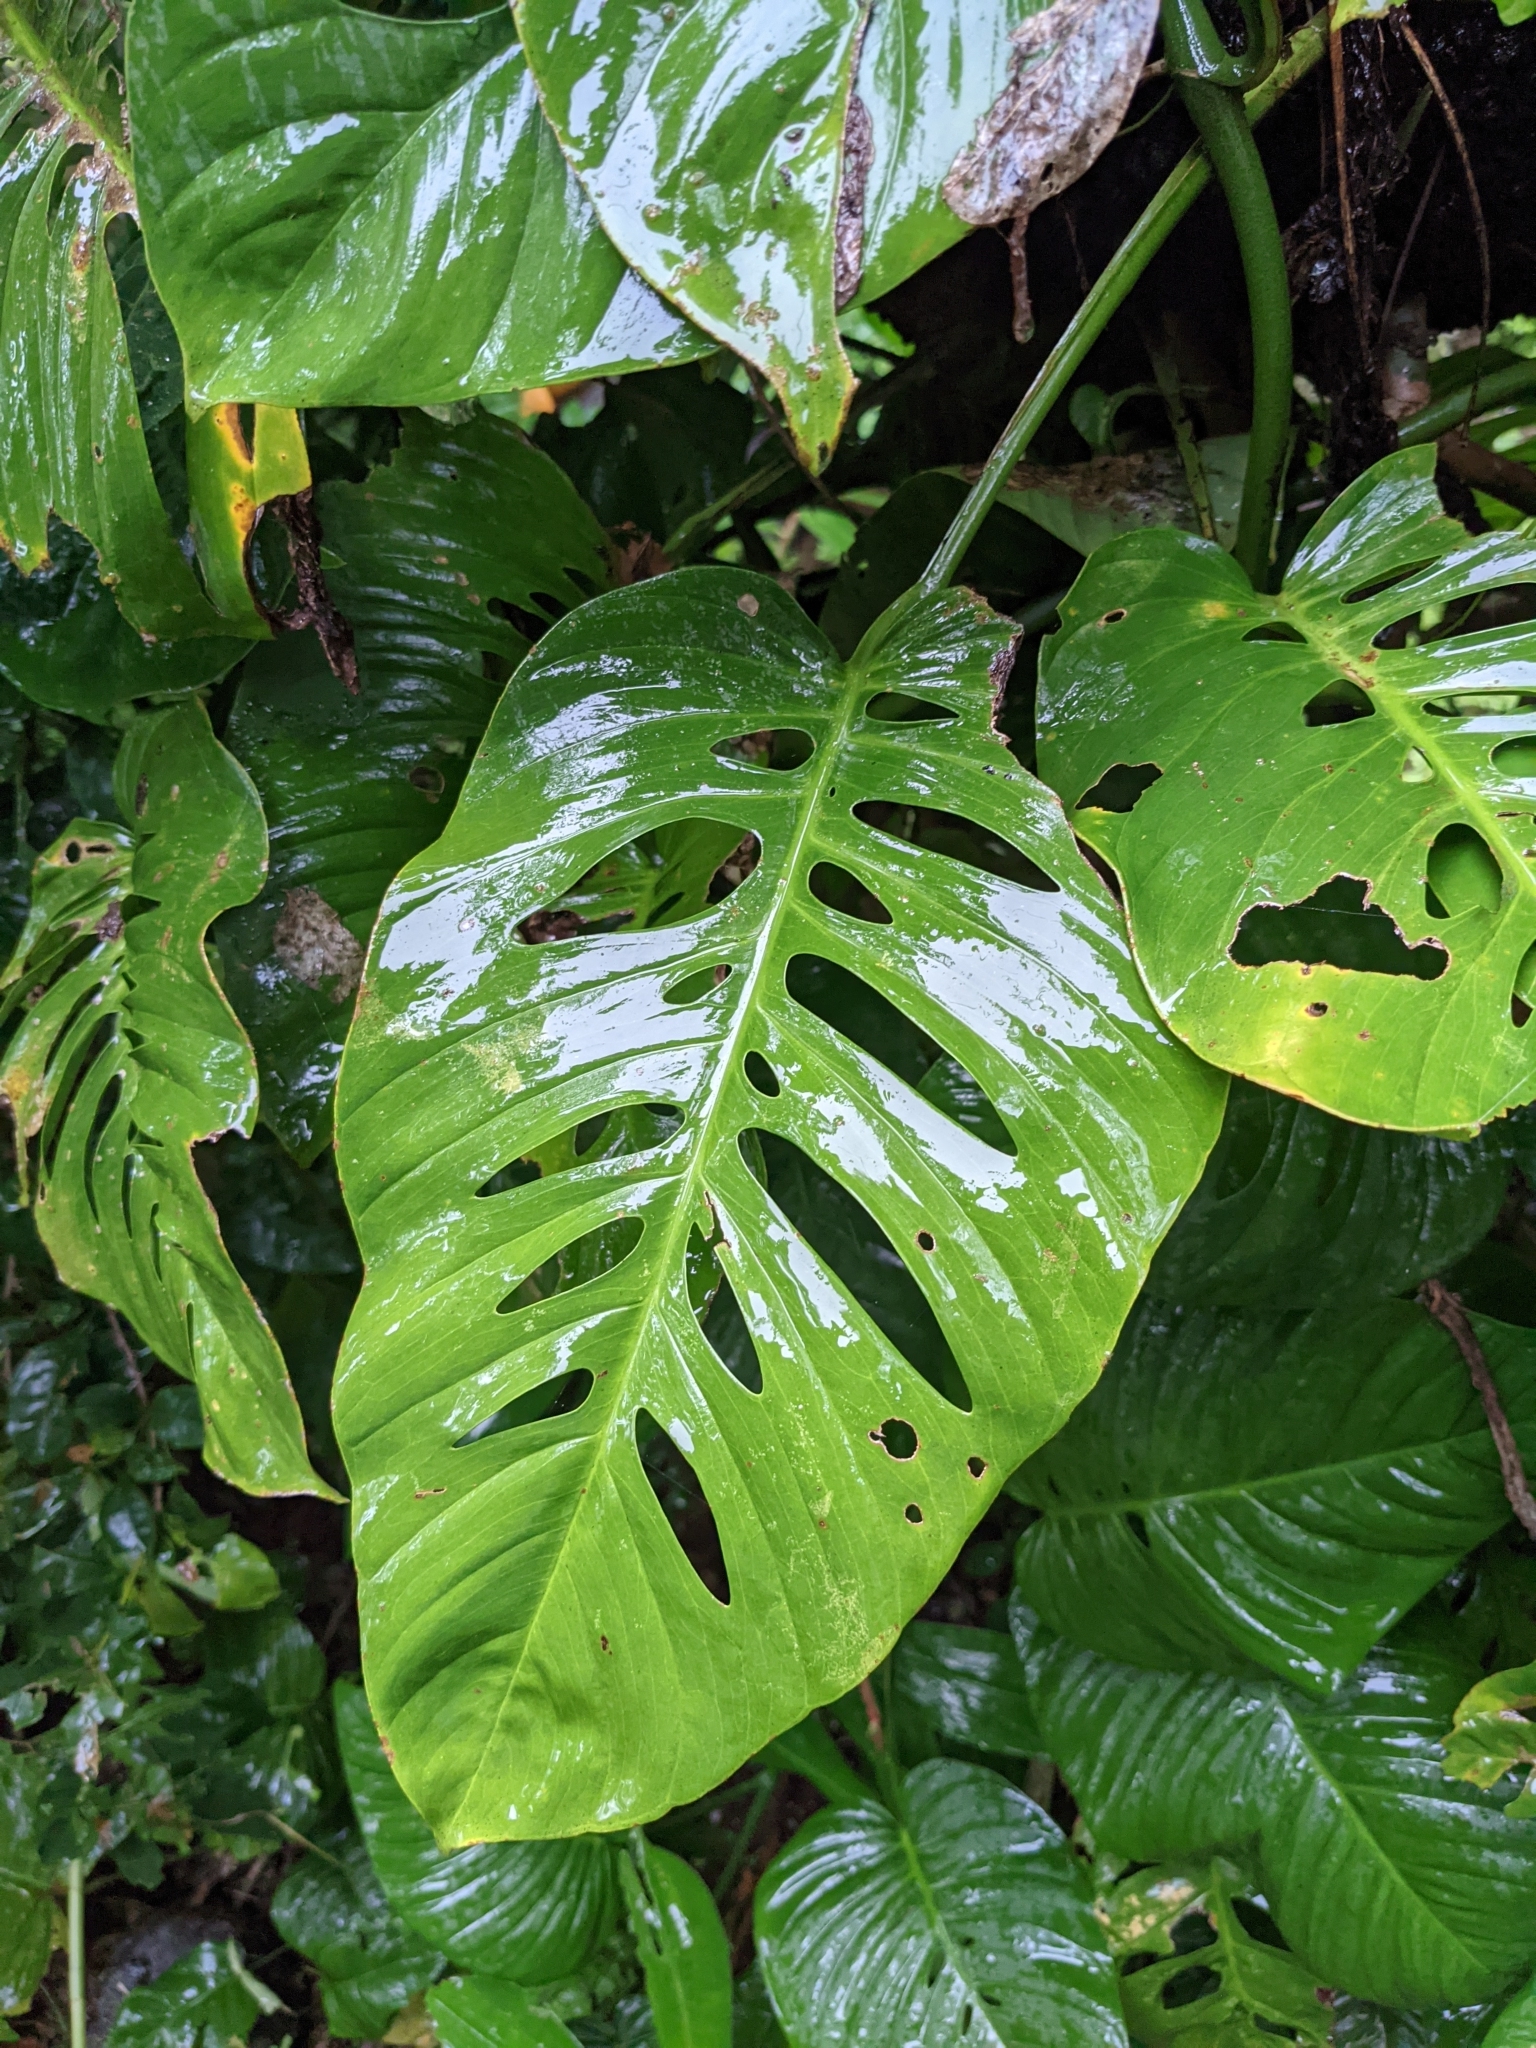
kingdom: Plantae
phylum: Tracheophyta
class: Liliopsida
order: Alismatales
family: Araceae
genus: Monstera
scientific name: Monstera adansonii
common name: Tarovine
